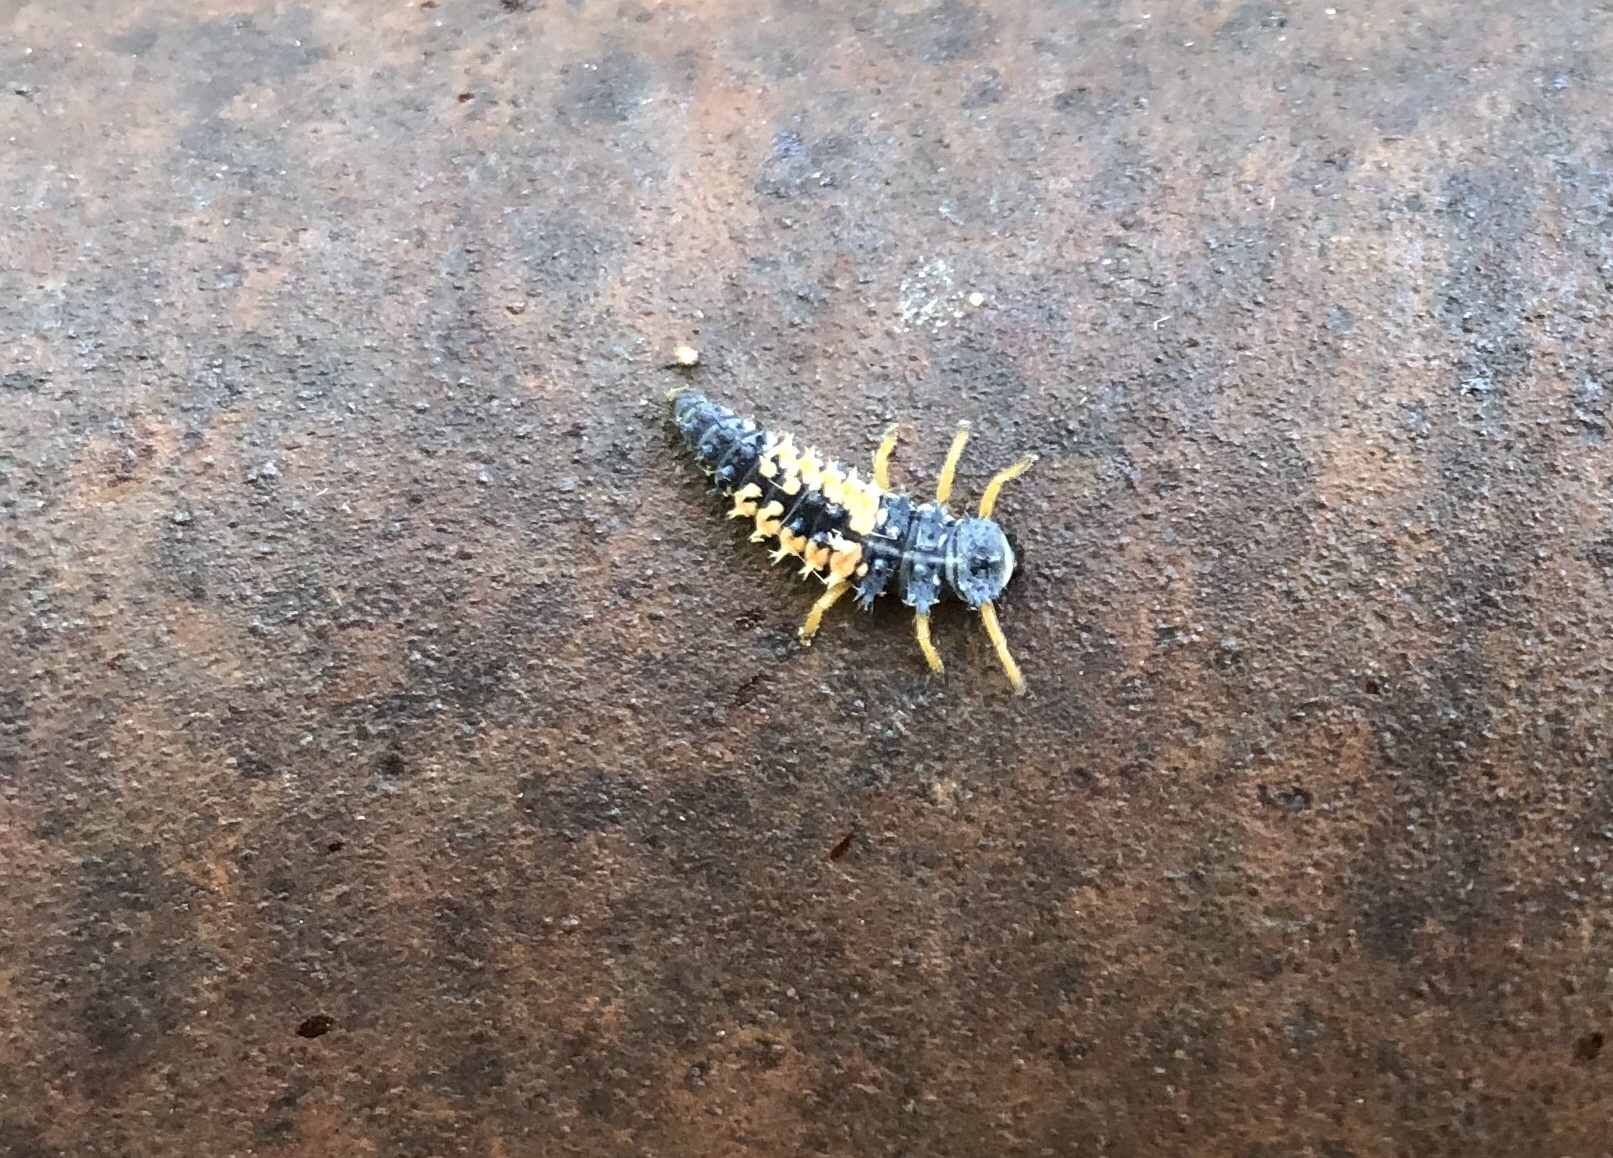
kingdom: Animalia
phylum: Arthropoda
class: Insecta
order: Coleoptera
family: Coccinellidae
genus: Harmonia
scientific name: Harmonia axyridis
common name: Harlequin ladybird
